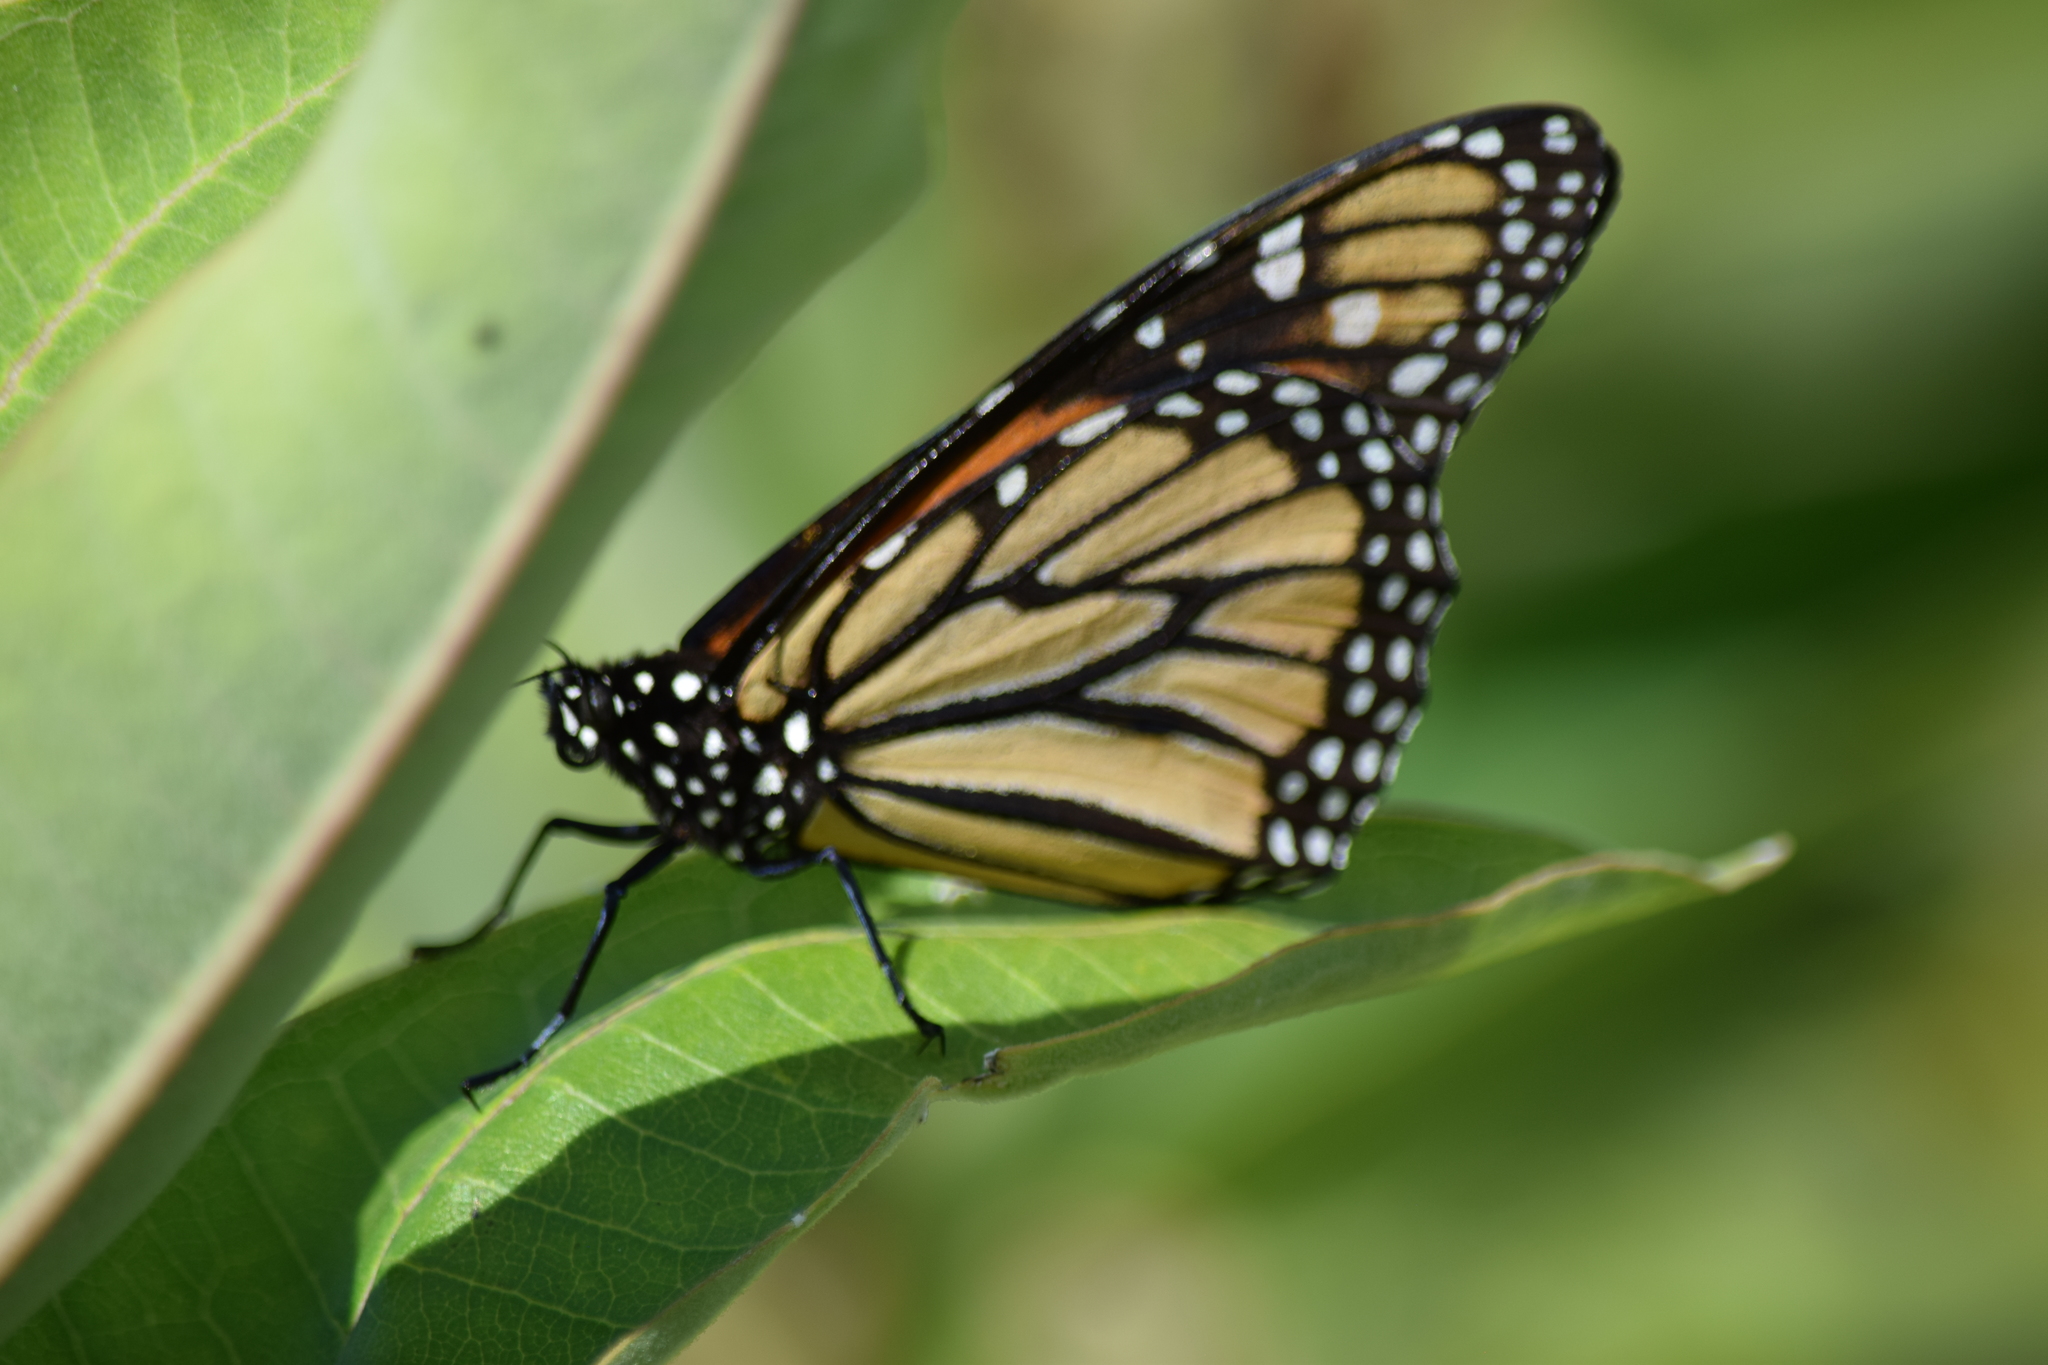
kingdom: Animalia
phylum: Arthropoda
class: Insecta
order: Lepidoptera
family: Nymphalidae
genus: Danaus
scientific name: Danaus plexippus
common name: Monarch
